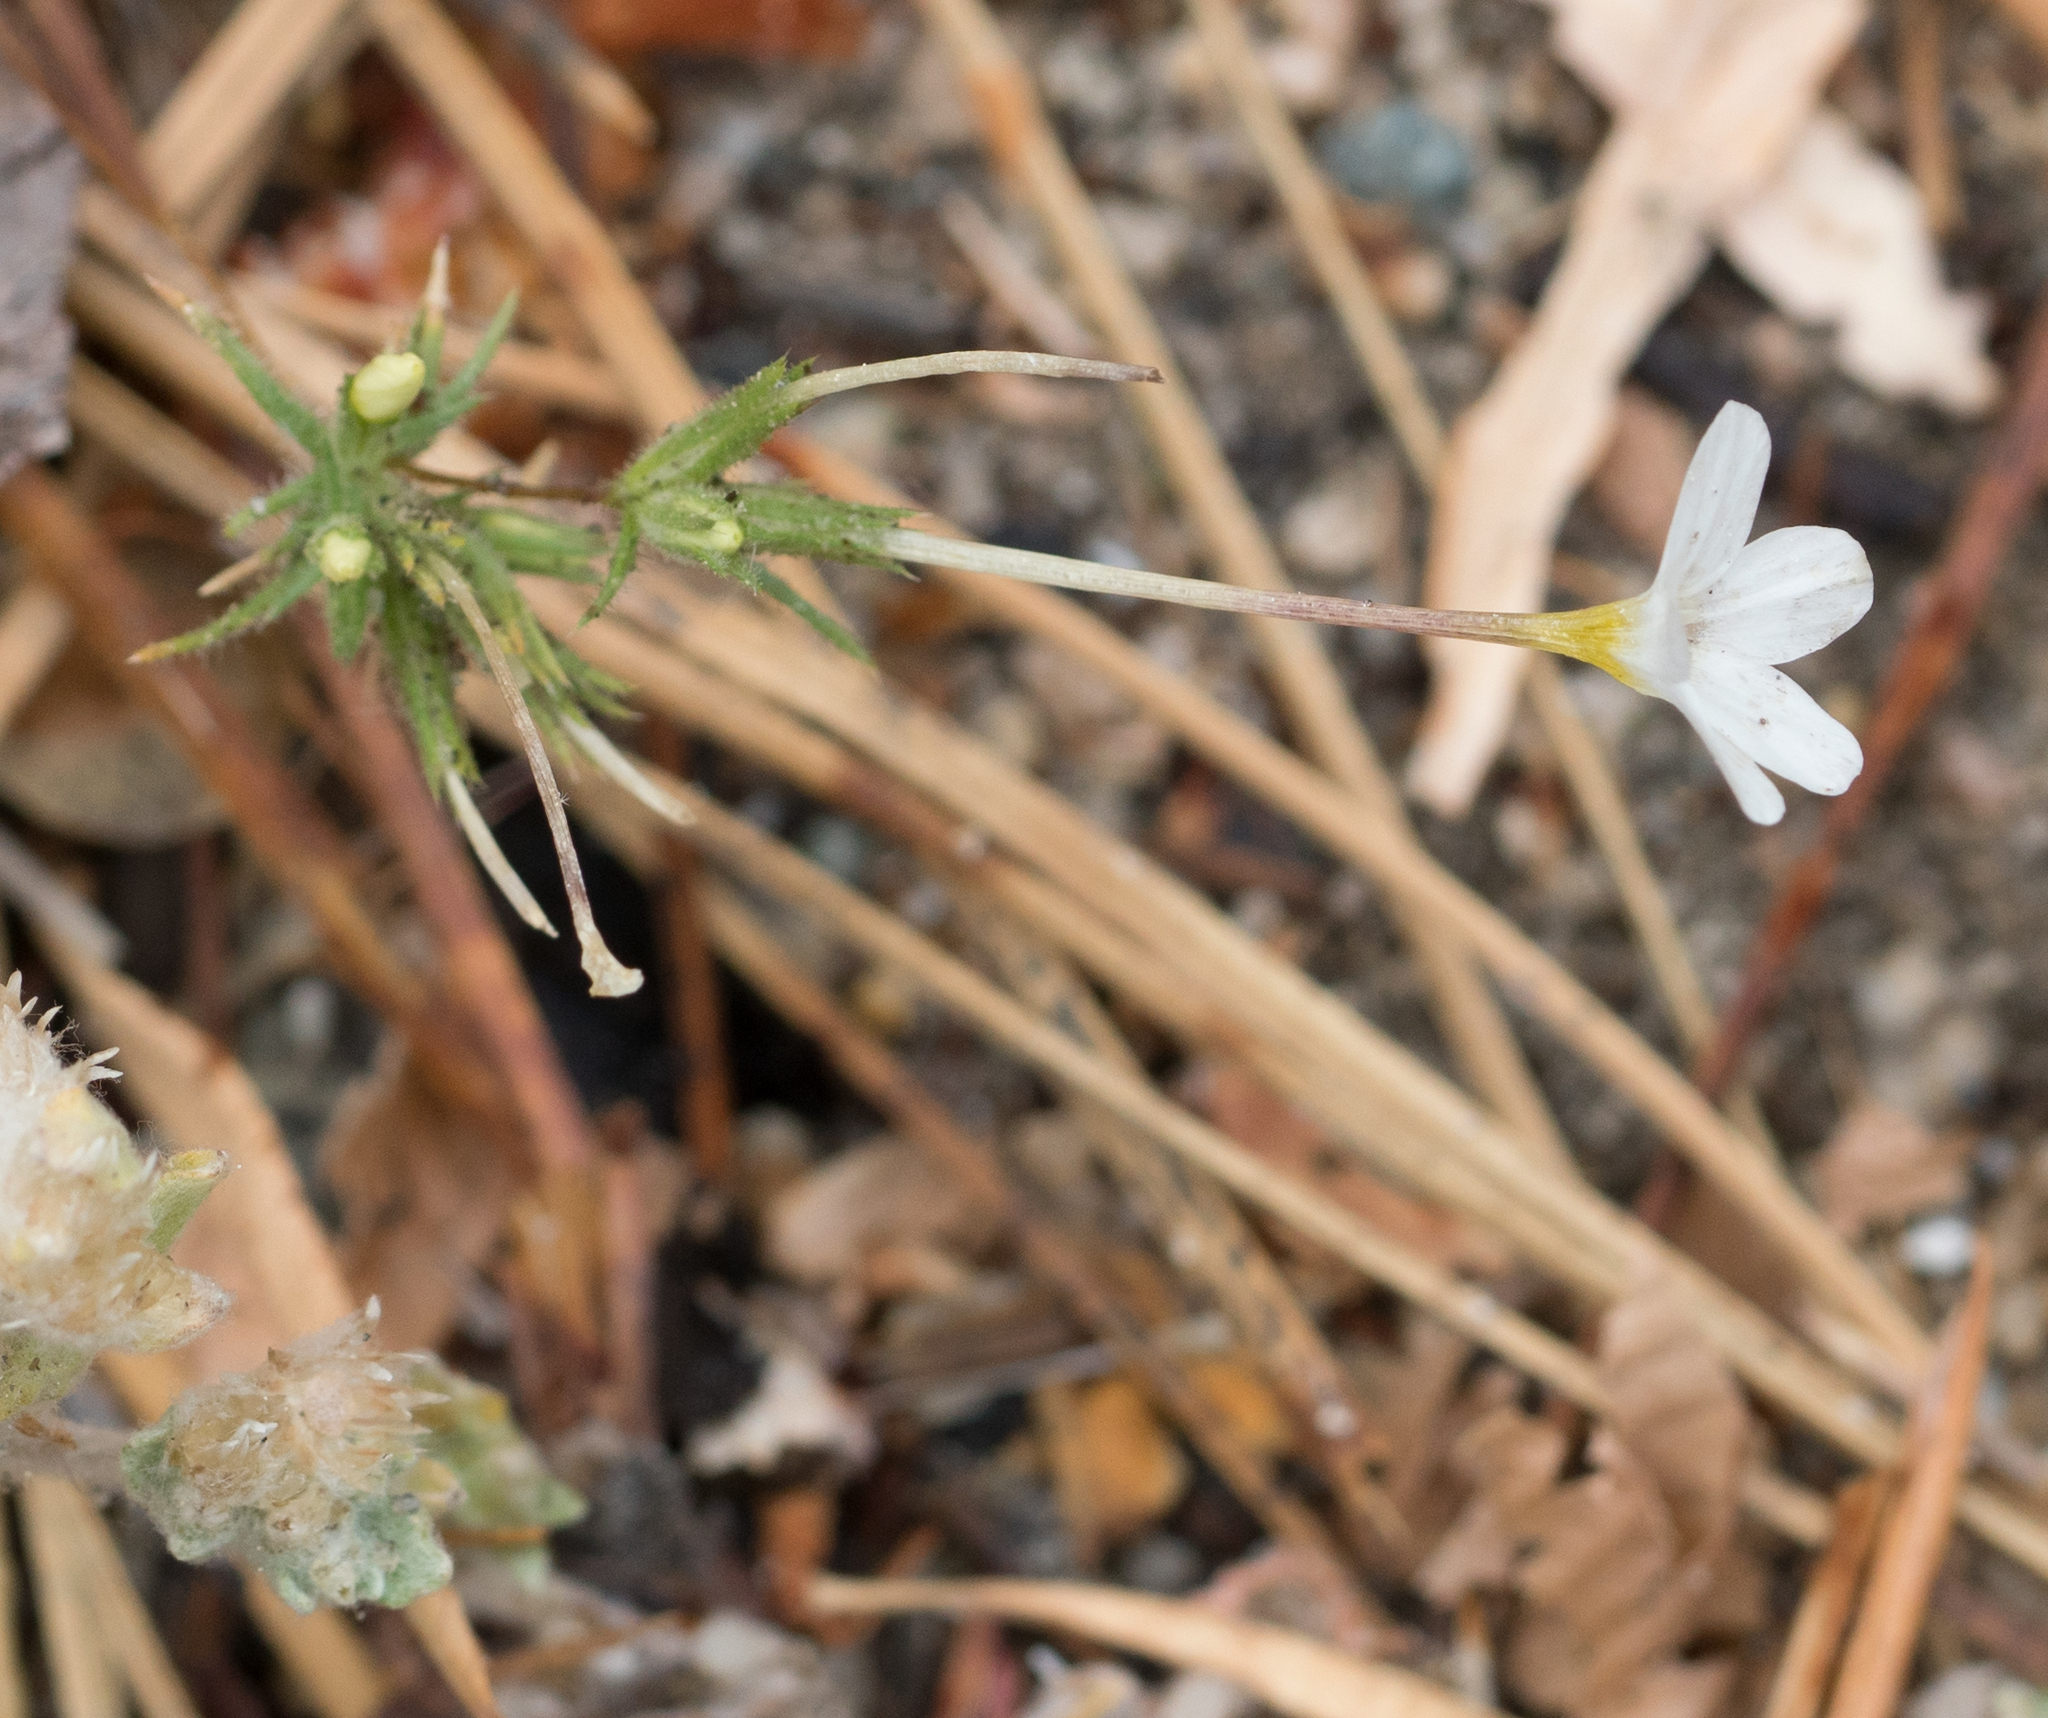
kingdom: Plantae
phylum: Tracheophyta
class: Magnoliopsida
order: Ericales
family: Polemoniaceae
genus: Leptosiphon
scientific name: Leptosiphon breviculus
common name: Mojave linanthus
